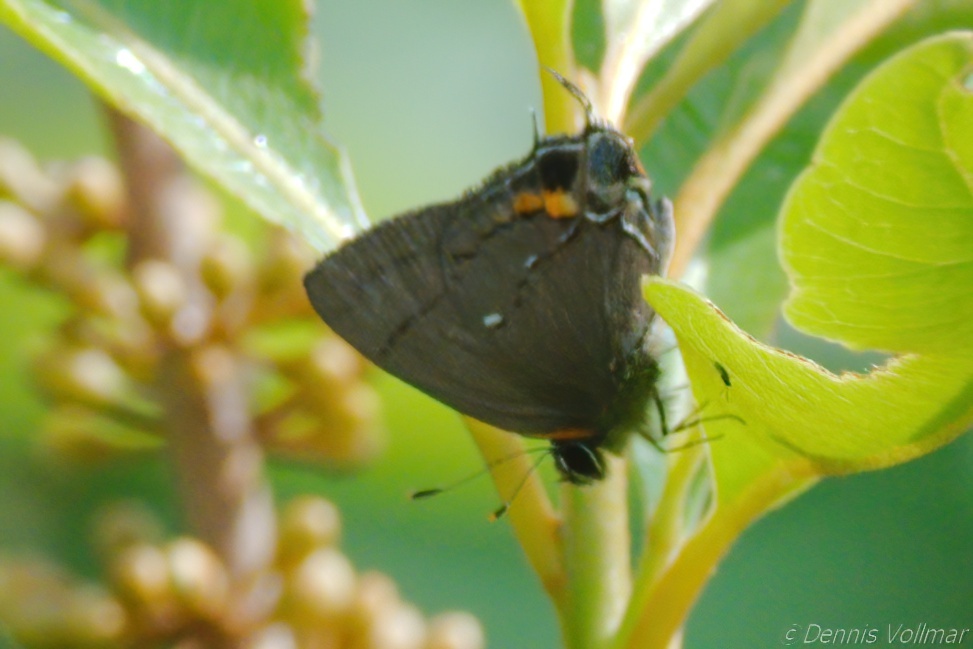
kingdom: Animalia
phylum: Arthropoda
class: Insecta
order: Lepidoptera
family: Lycaenidae
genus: Thecla
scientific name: Thecla angelia
